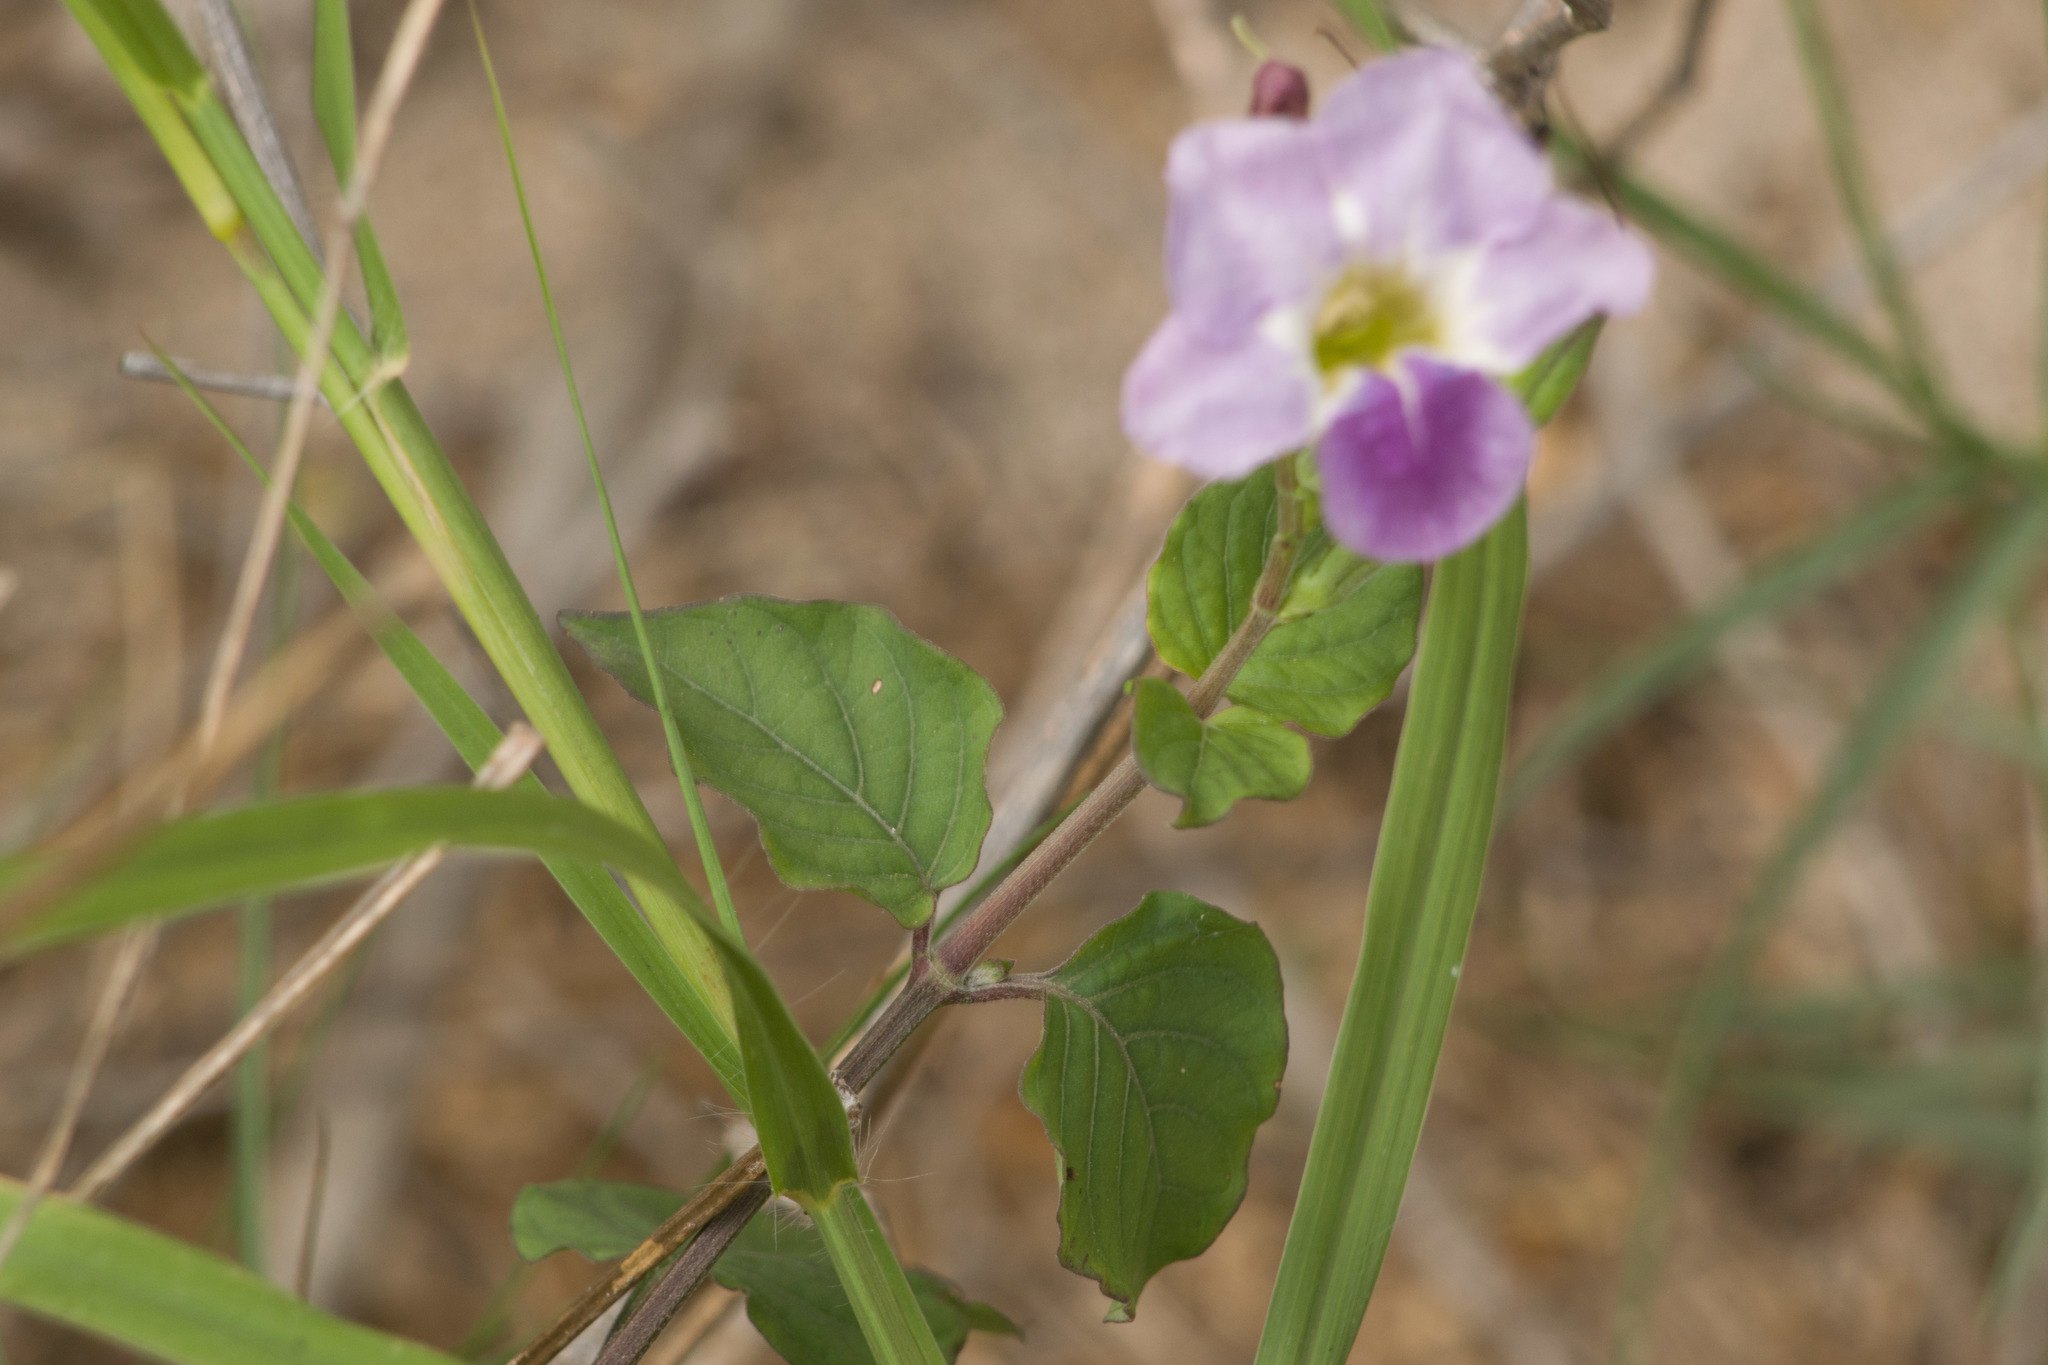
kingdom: Plantae
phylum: Tracheophyta
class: Magnoliopsida
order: Lamiales
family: Acanthaceae
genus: Asystasia
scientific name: Asystasia gangetica
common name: Chinese violet
